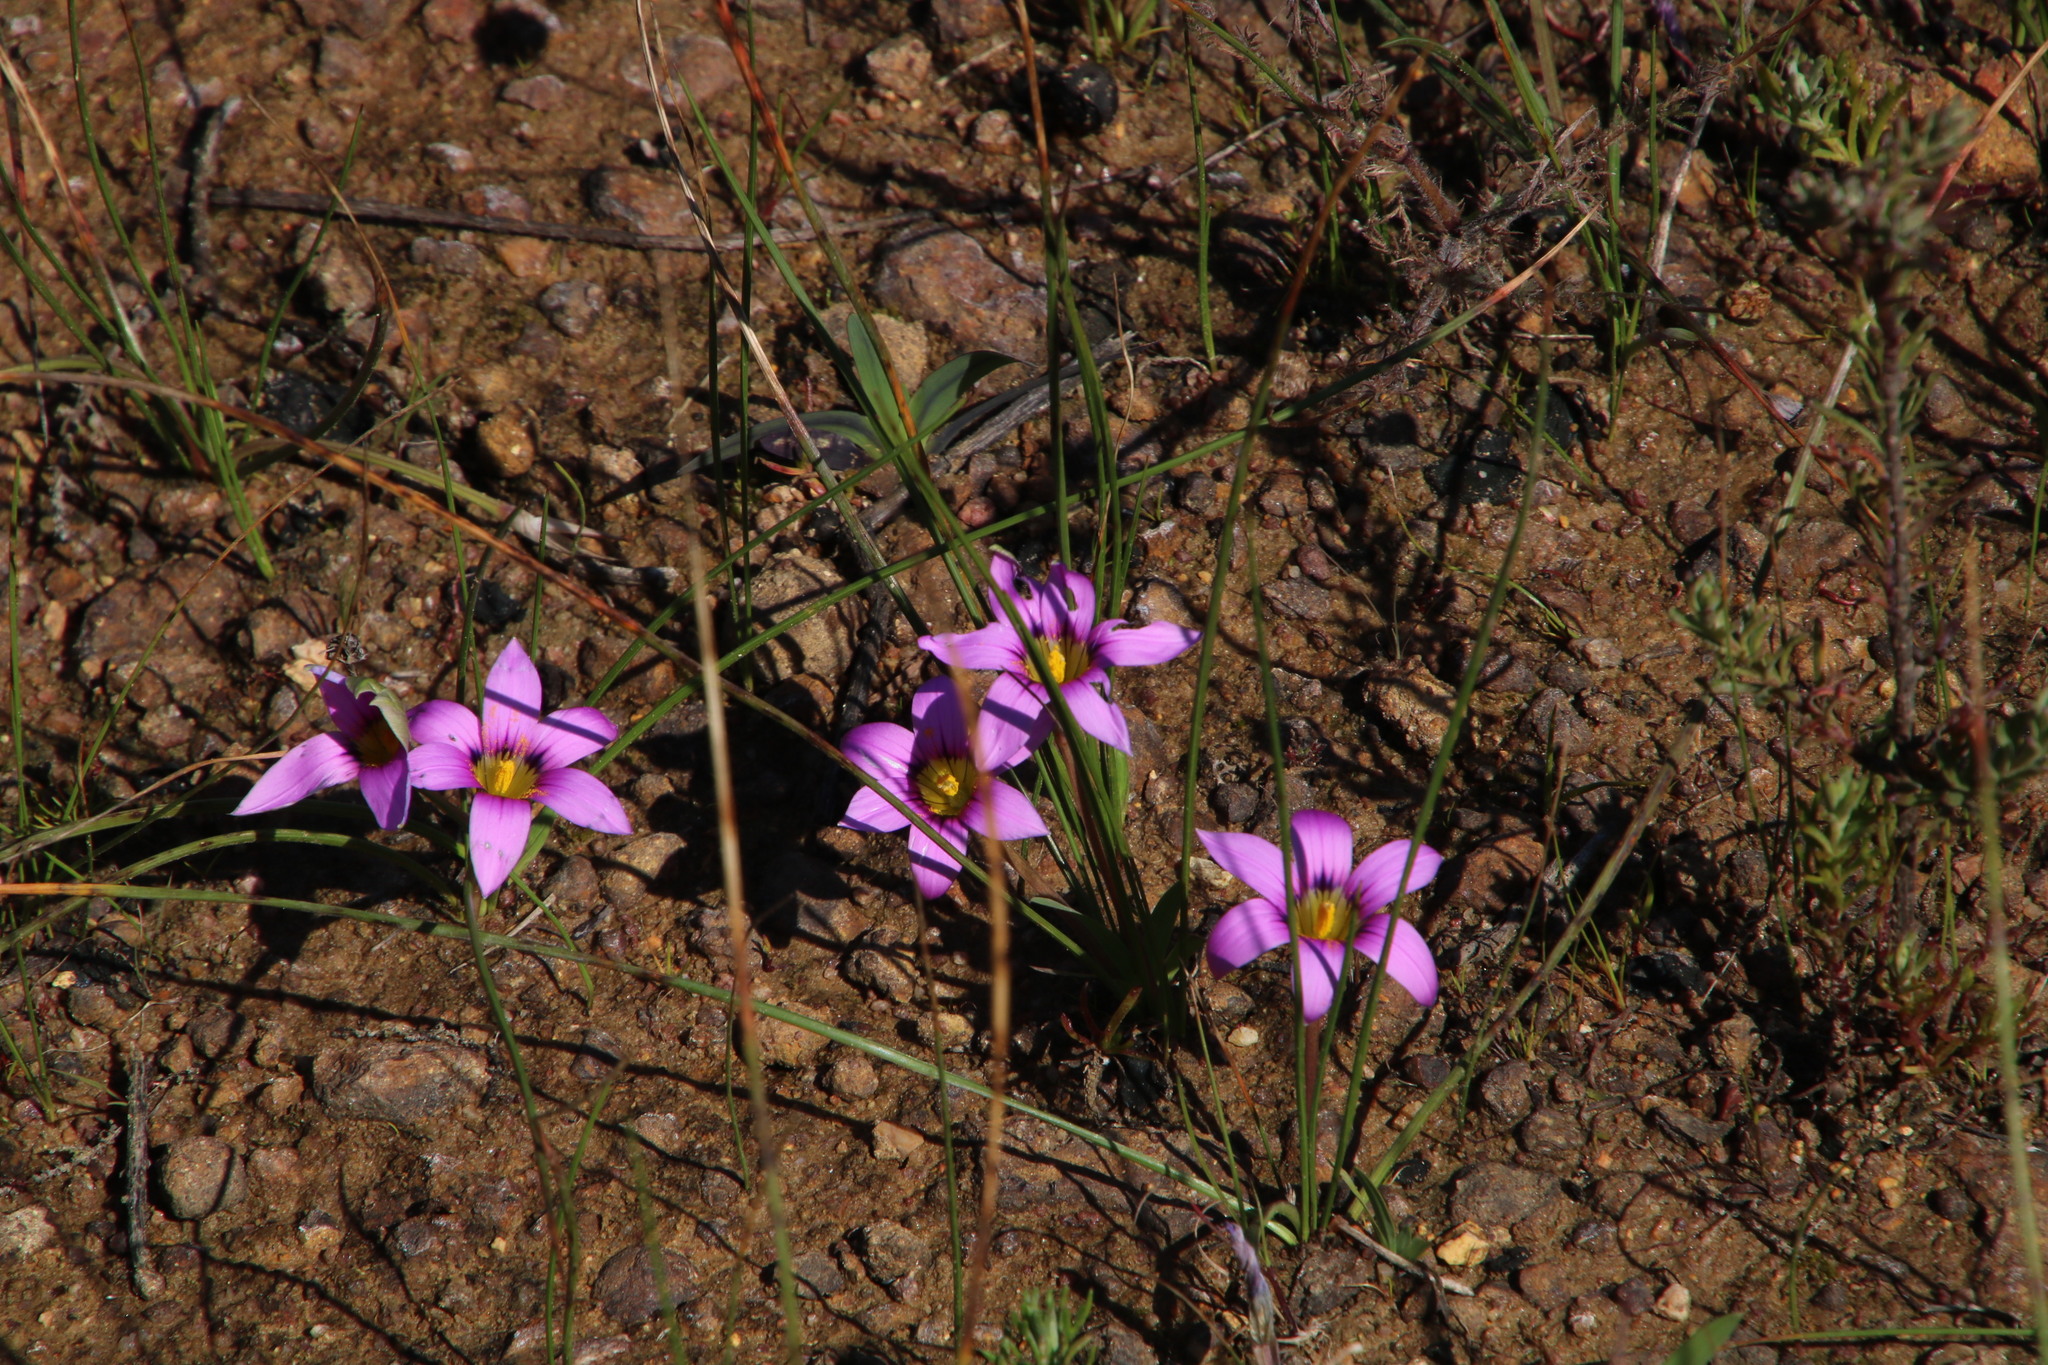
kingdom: Plantae
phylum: Tracheophyta
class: Liliopsida
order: Asparagales
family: Iridaceae
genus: Romulea
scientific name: Romulea rosea
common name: Oniongrass
